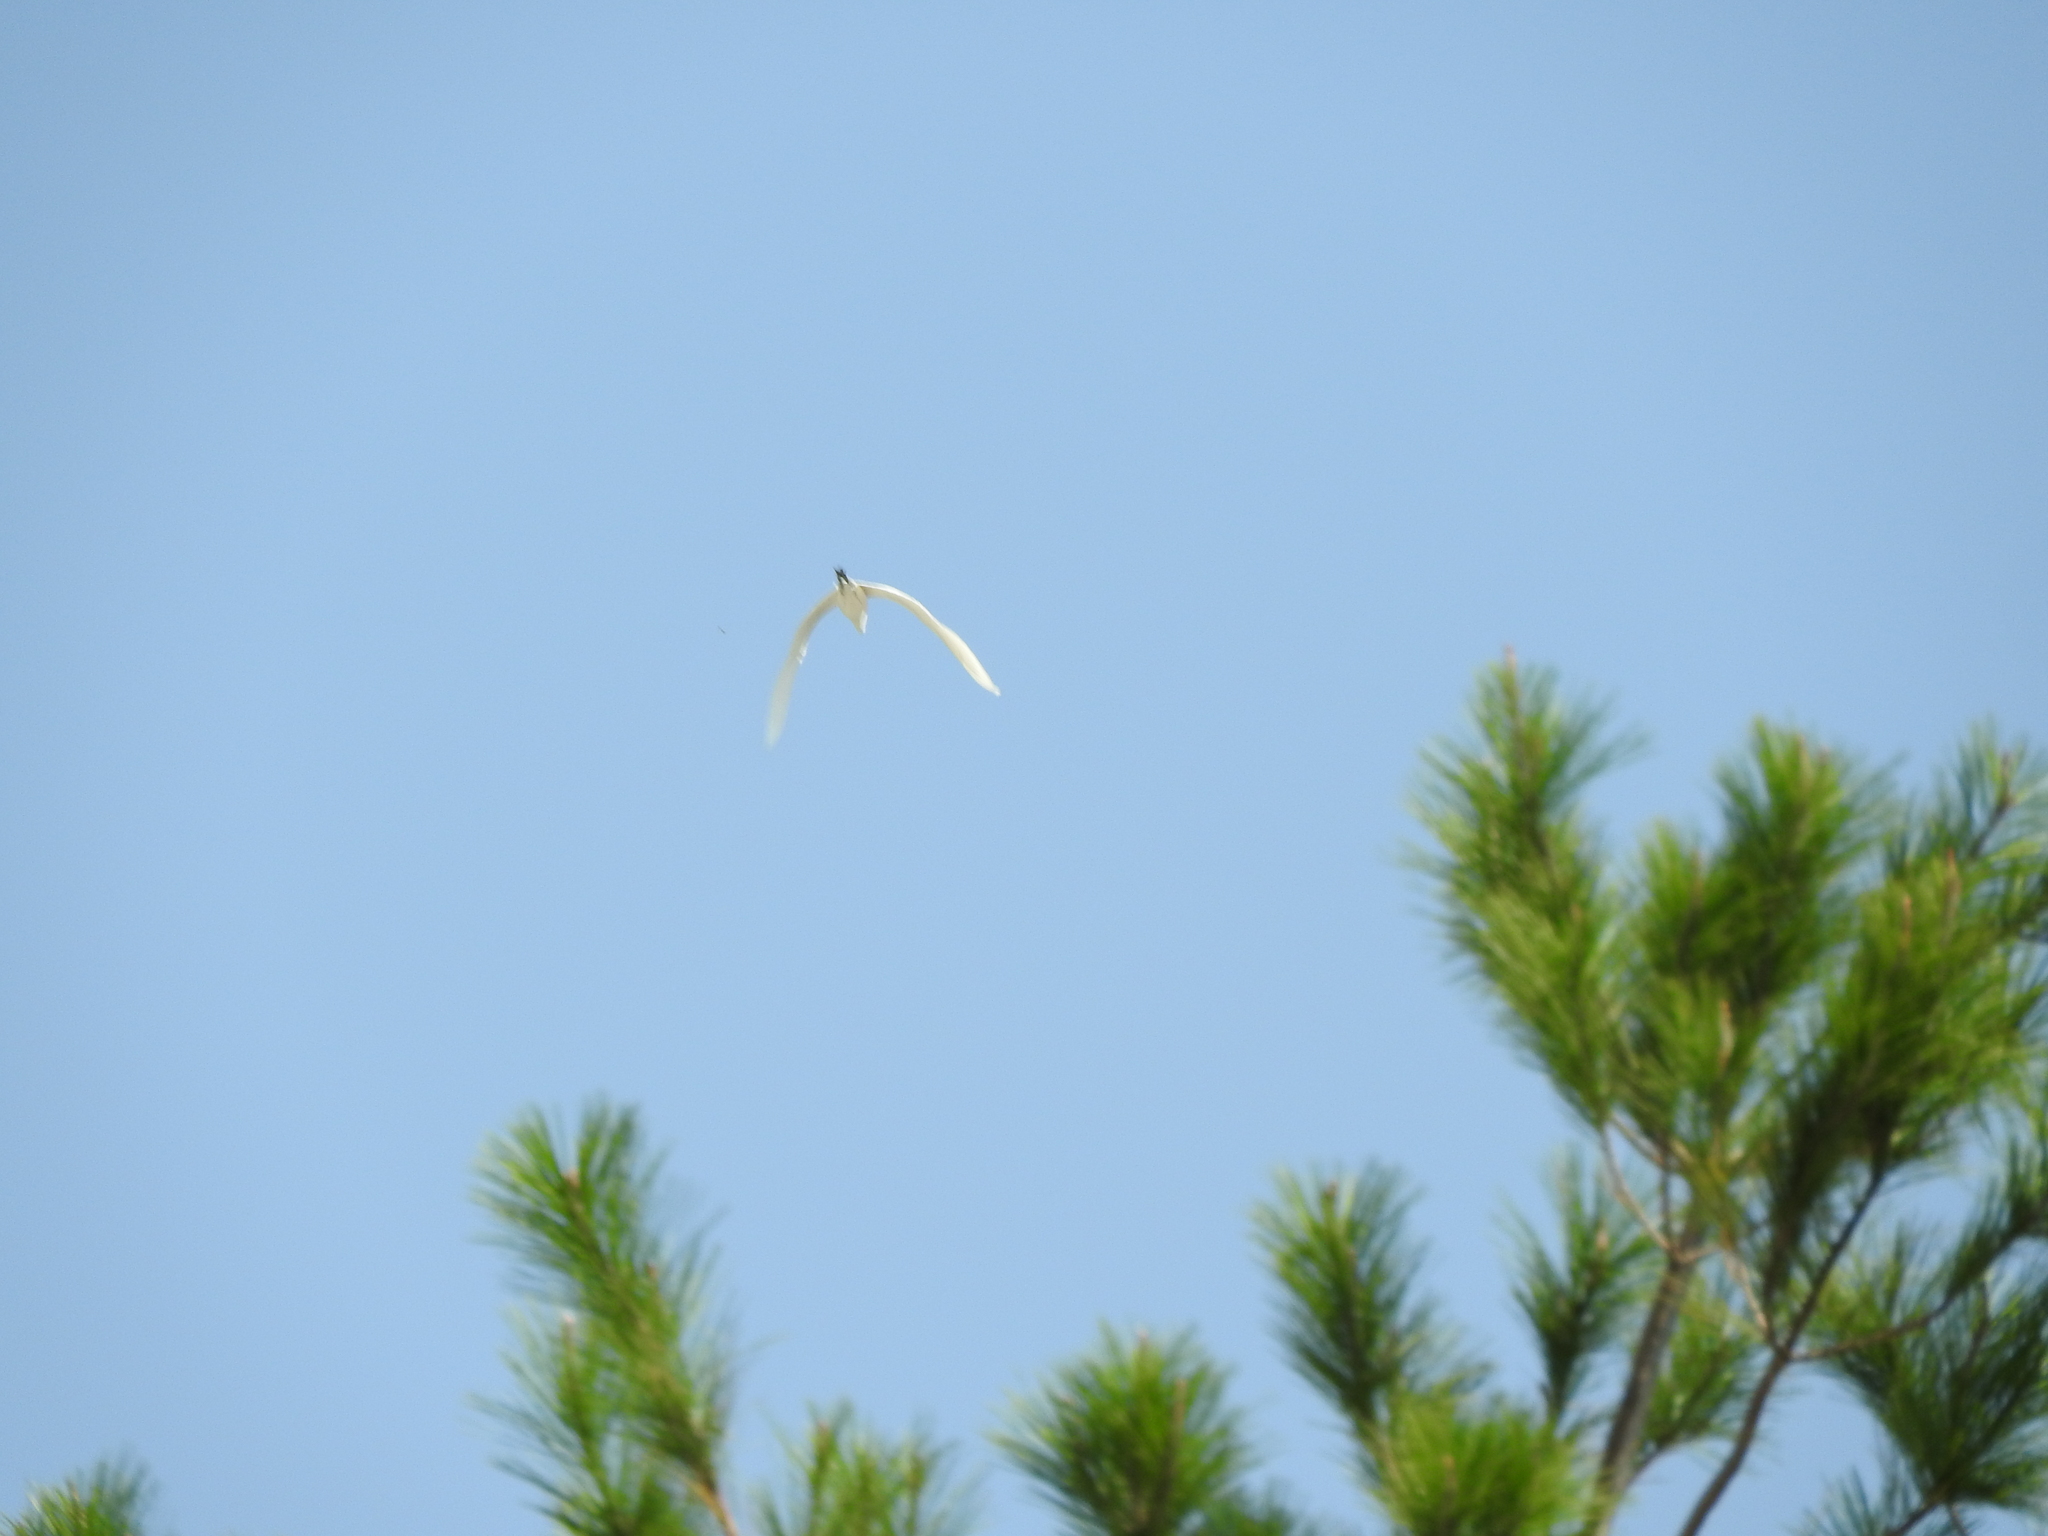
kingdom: Animalia
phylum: Chordata
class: Aves
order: Pelecaniformes
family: Ardeidae
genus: Bubulcus
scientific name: Bubulcus ibis
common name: Cattle egret
